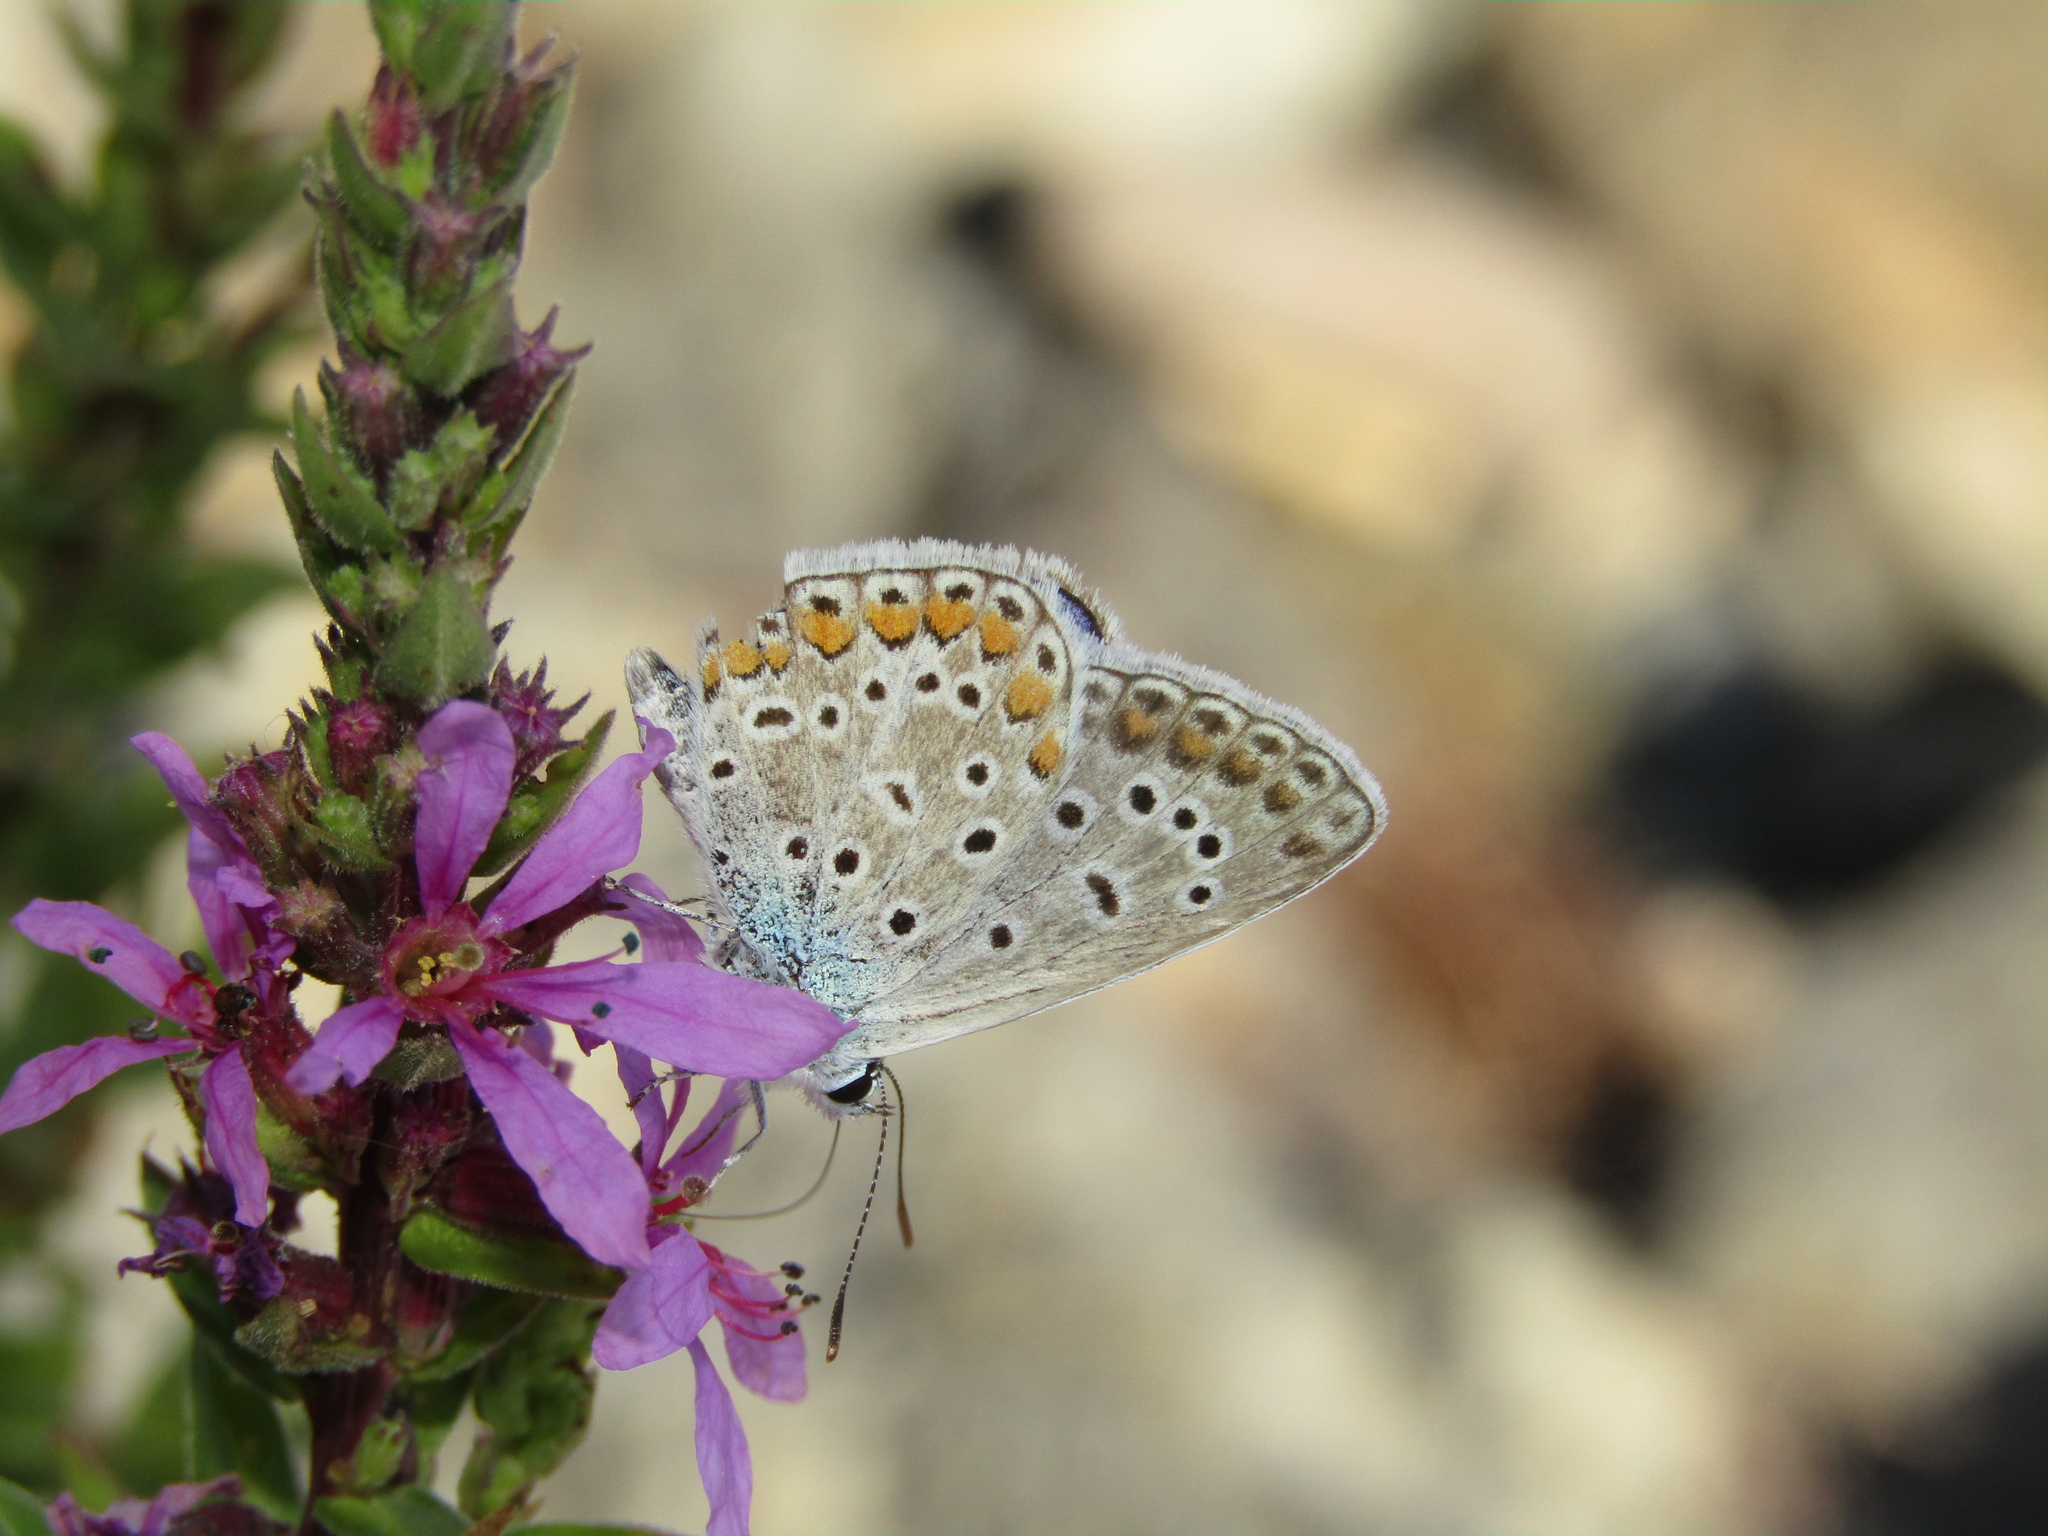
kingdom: Animalia
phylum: Arthropoda
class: Insecta
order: Lepidoptera
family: Lycaenidae
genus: Polyommatus
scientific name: Polyommatus icarus
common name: Common blue
